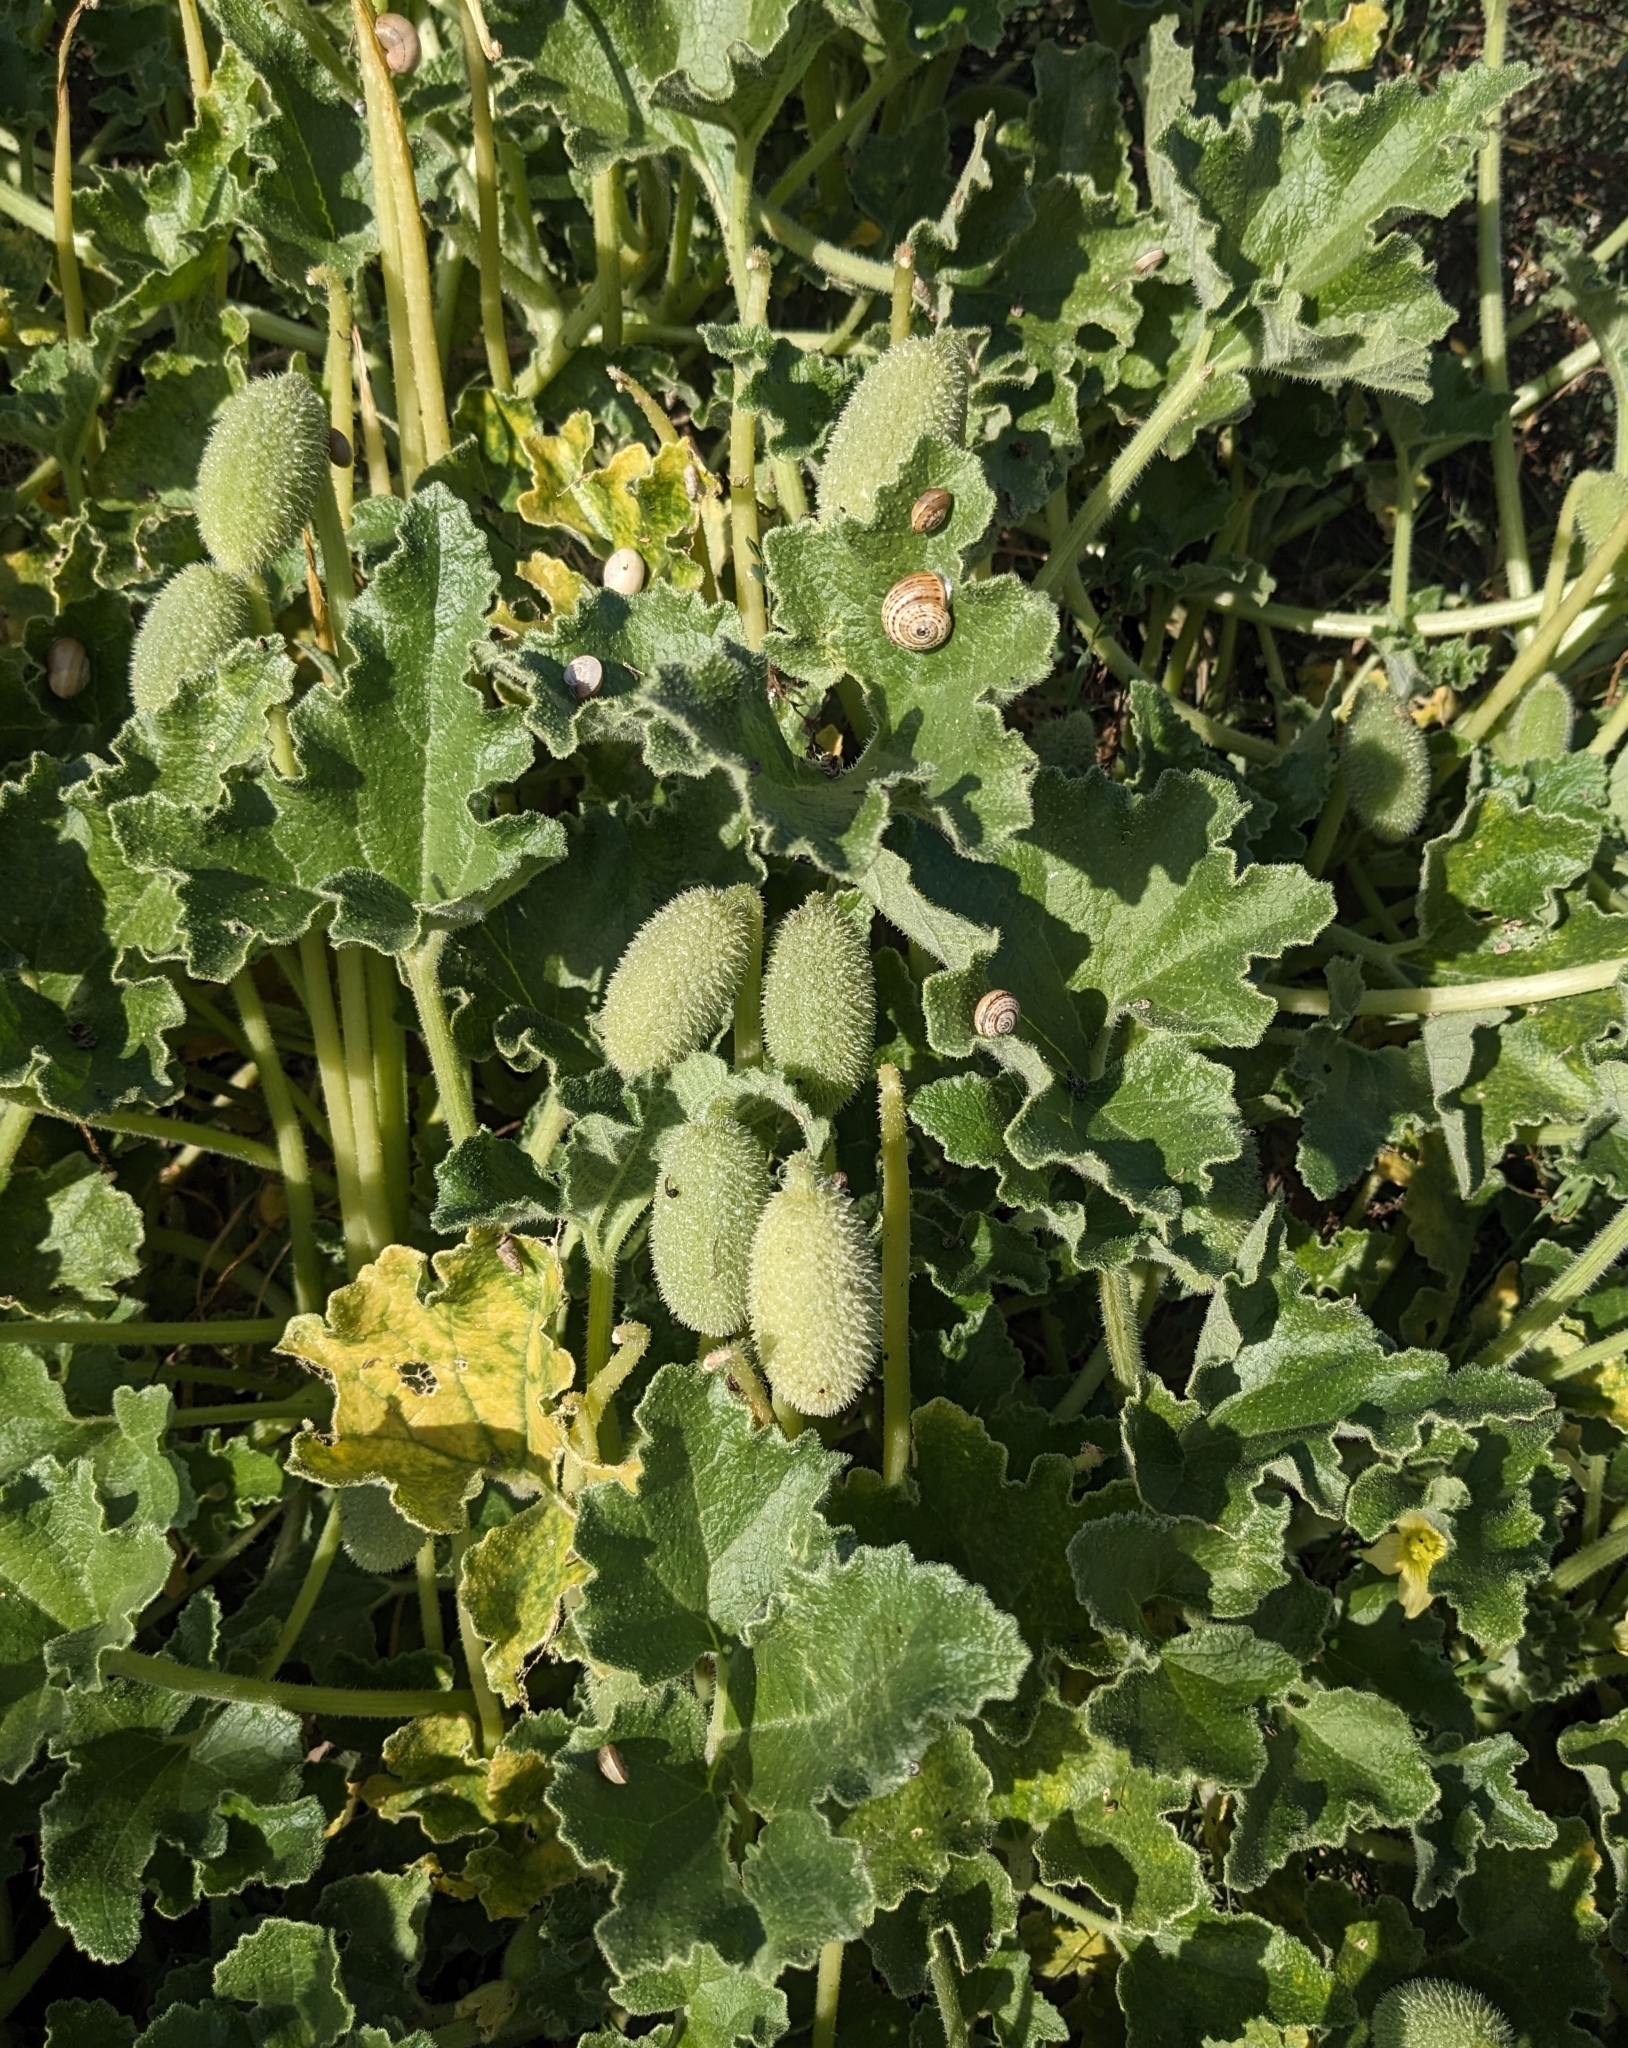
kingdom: Plantae
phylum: Tracheophyta
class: Magnoliopsida
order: Cucurbitales
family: Cucurbitaceae
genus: Ecballium
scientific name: Ecballium elaterium
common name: Squirting cucumber
